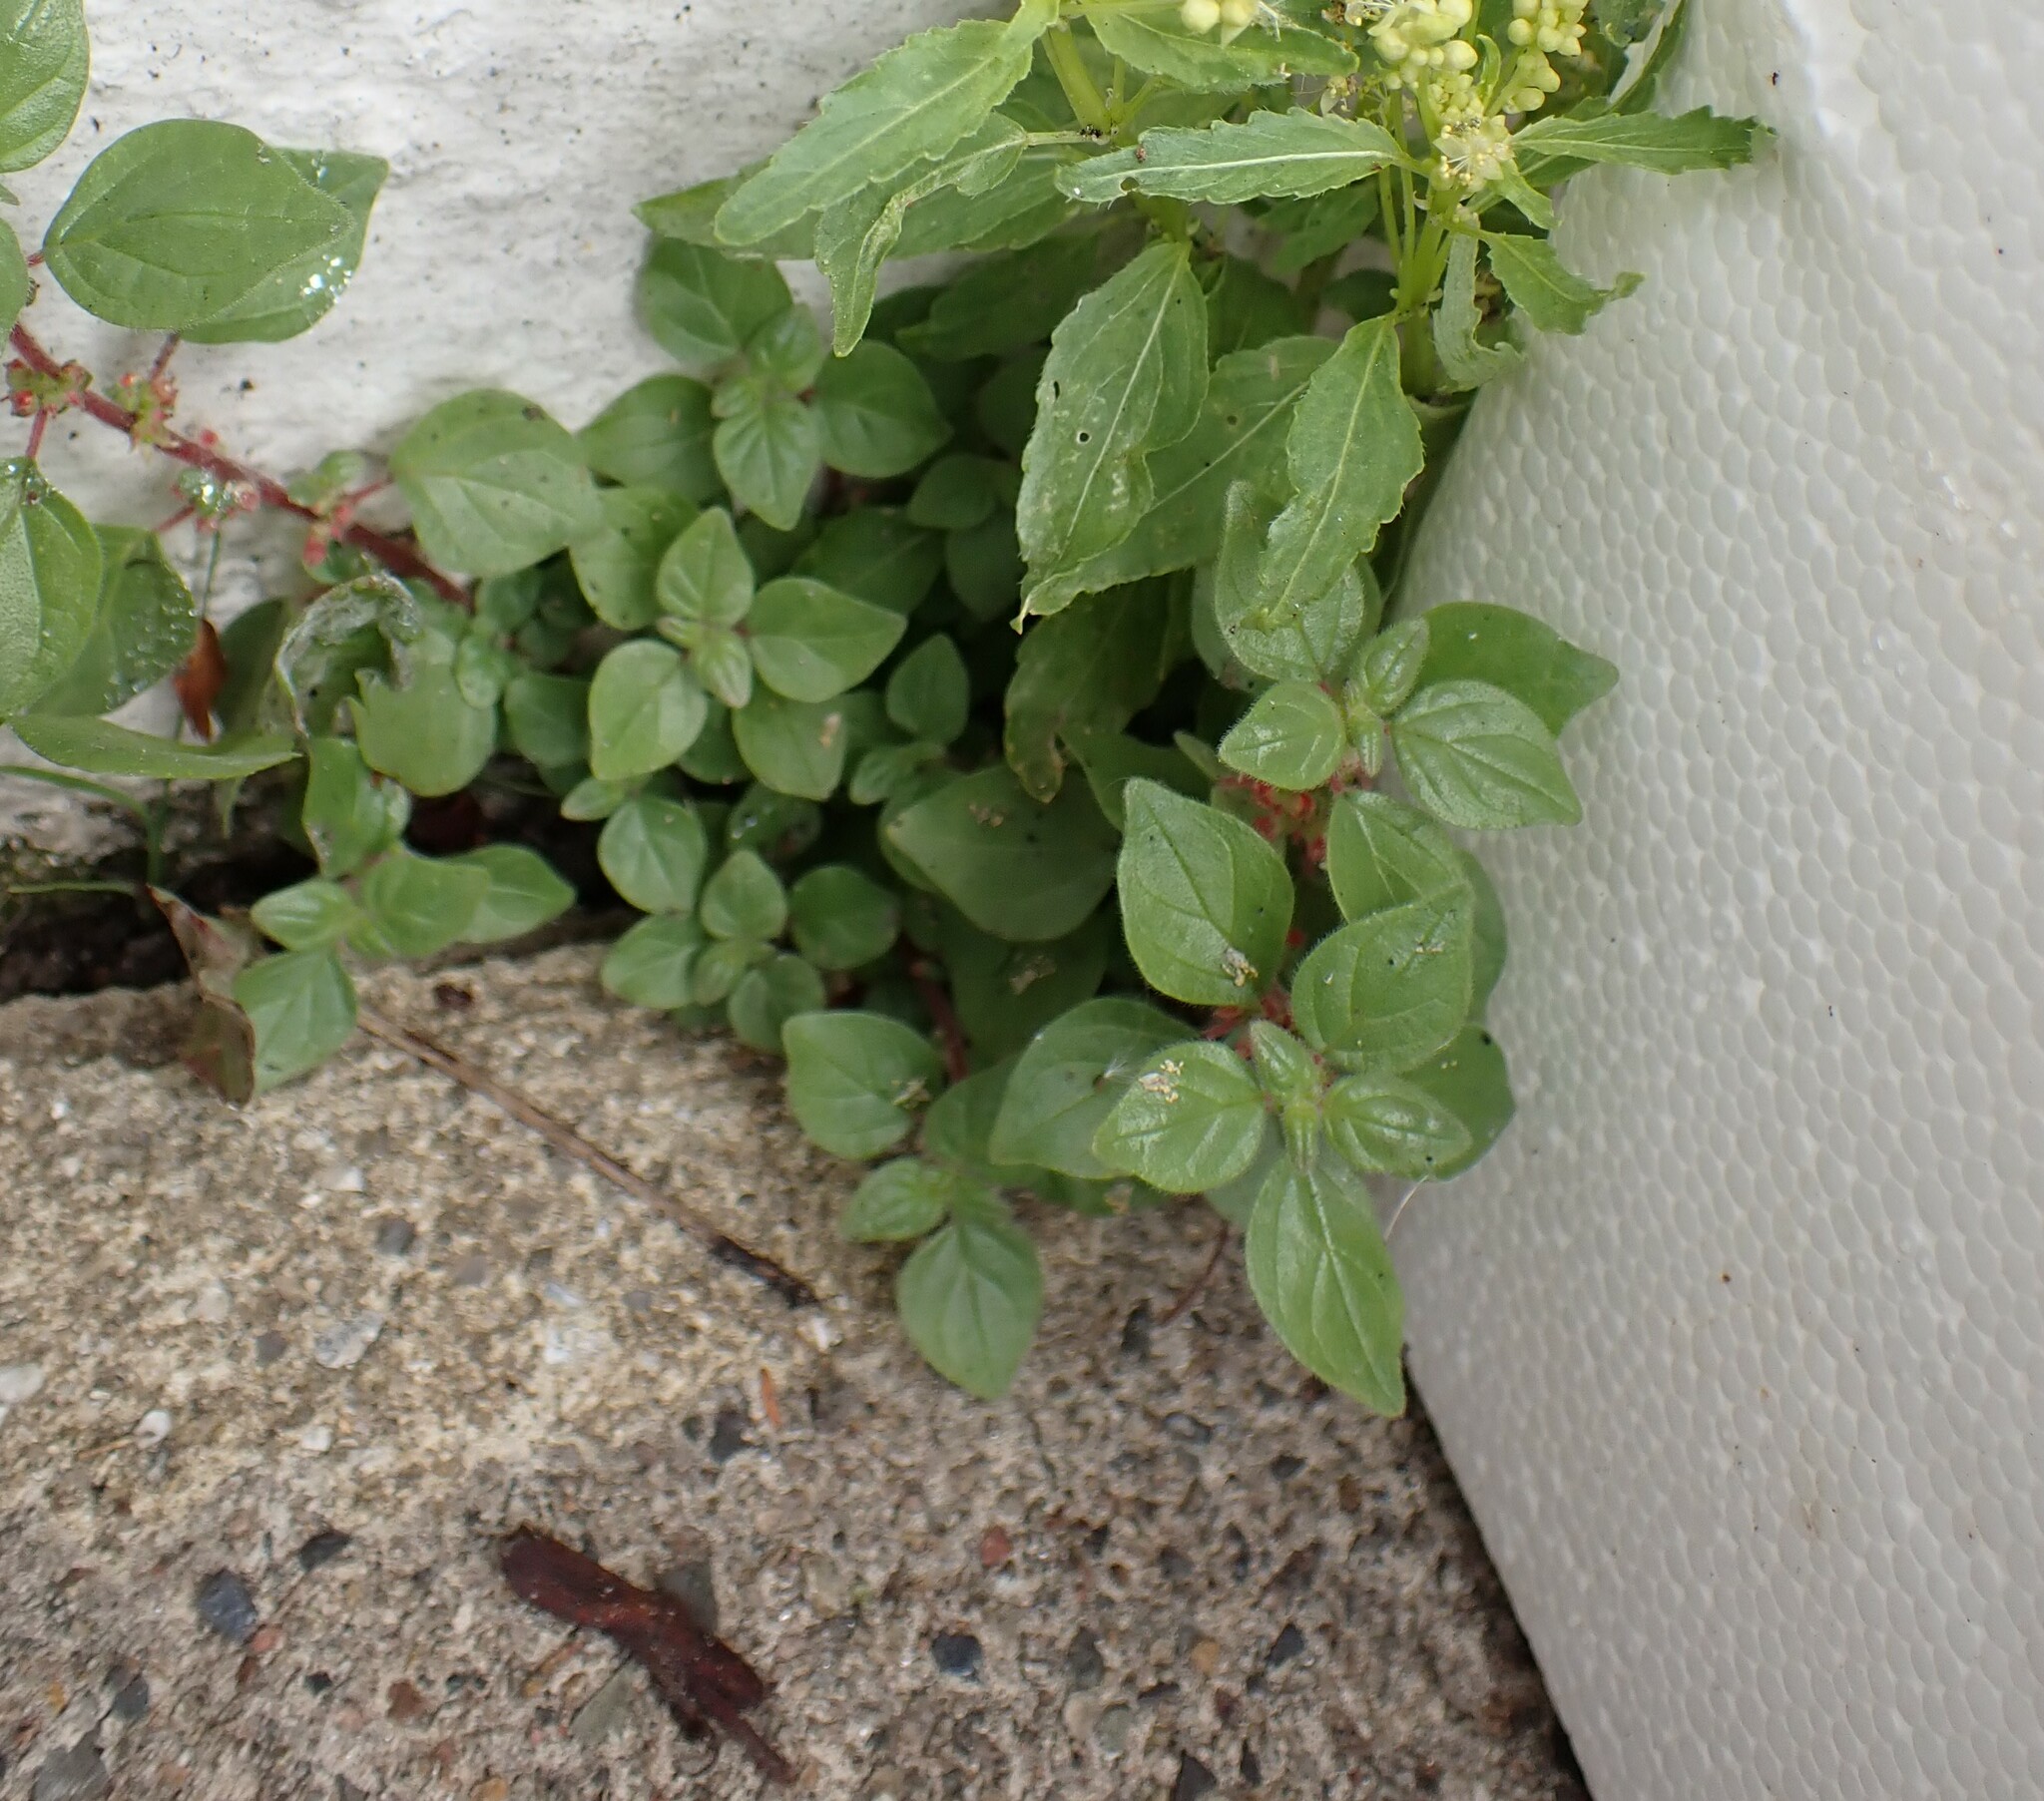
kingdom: Plantae
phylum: Tracheophyta
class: Magnoliopsida
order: Rosales
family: Urticaceae
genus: Parietaria
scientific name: Parietaria judaica
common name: Pellitory-of-the-wall
